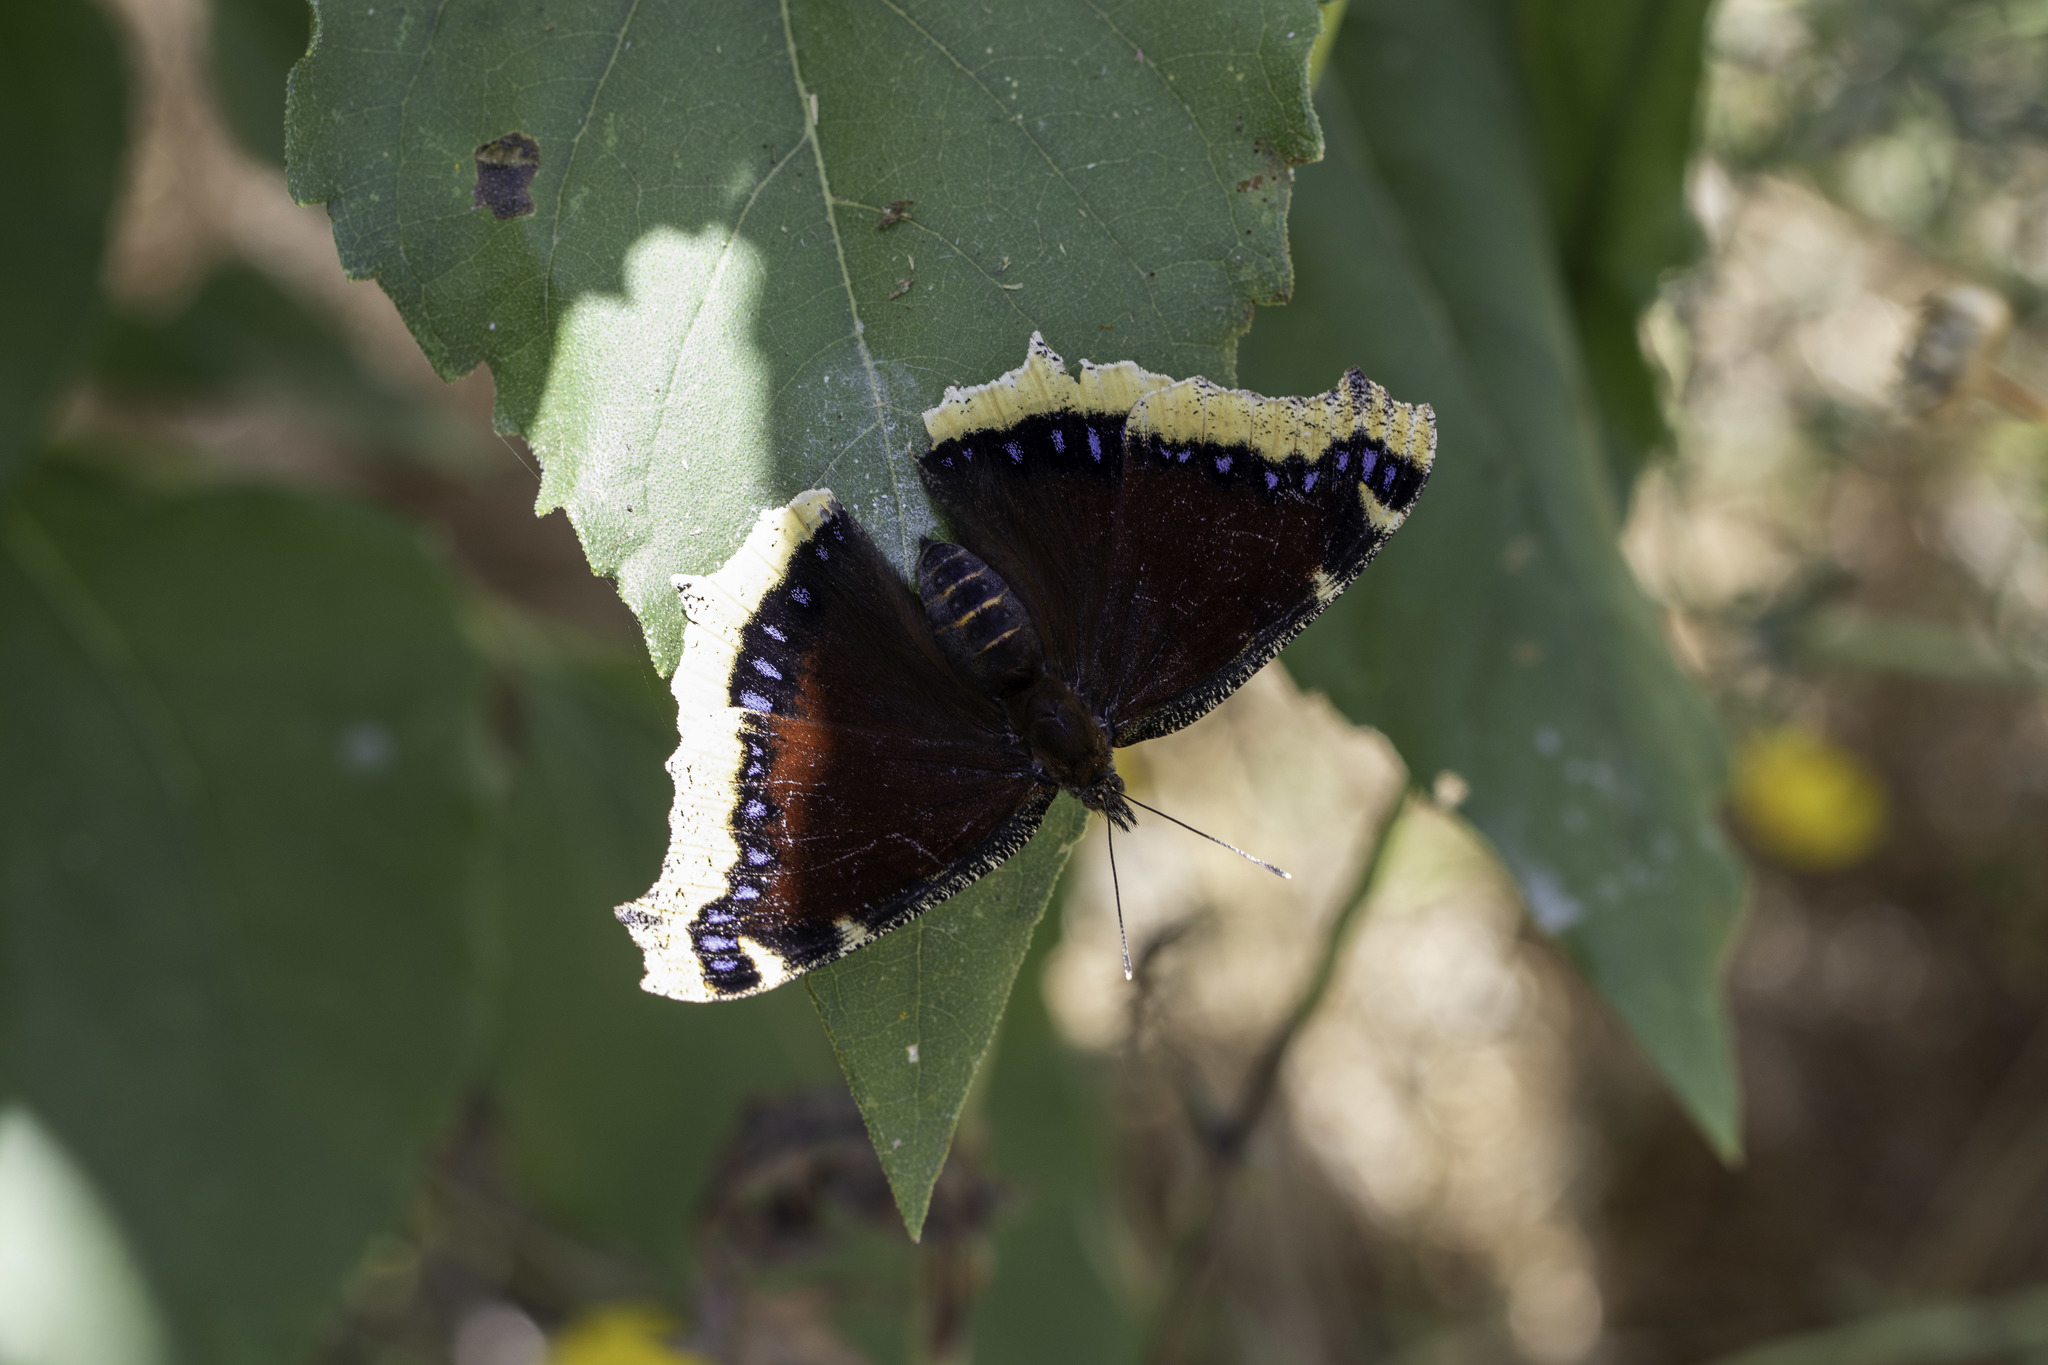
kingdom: Animalia
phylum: Arthropoda
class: Insecta
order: Lepidoptera
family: Nymphalidae
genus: Nymphalis
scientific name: Nymphalis antiopa
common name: Camberwell beauty
